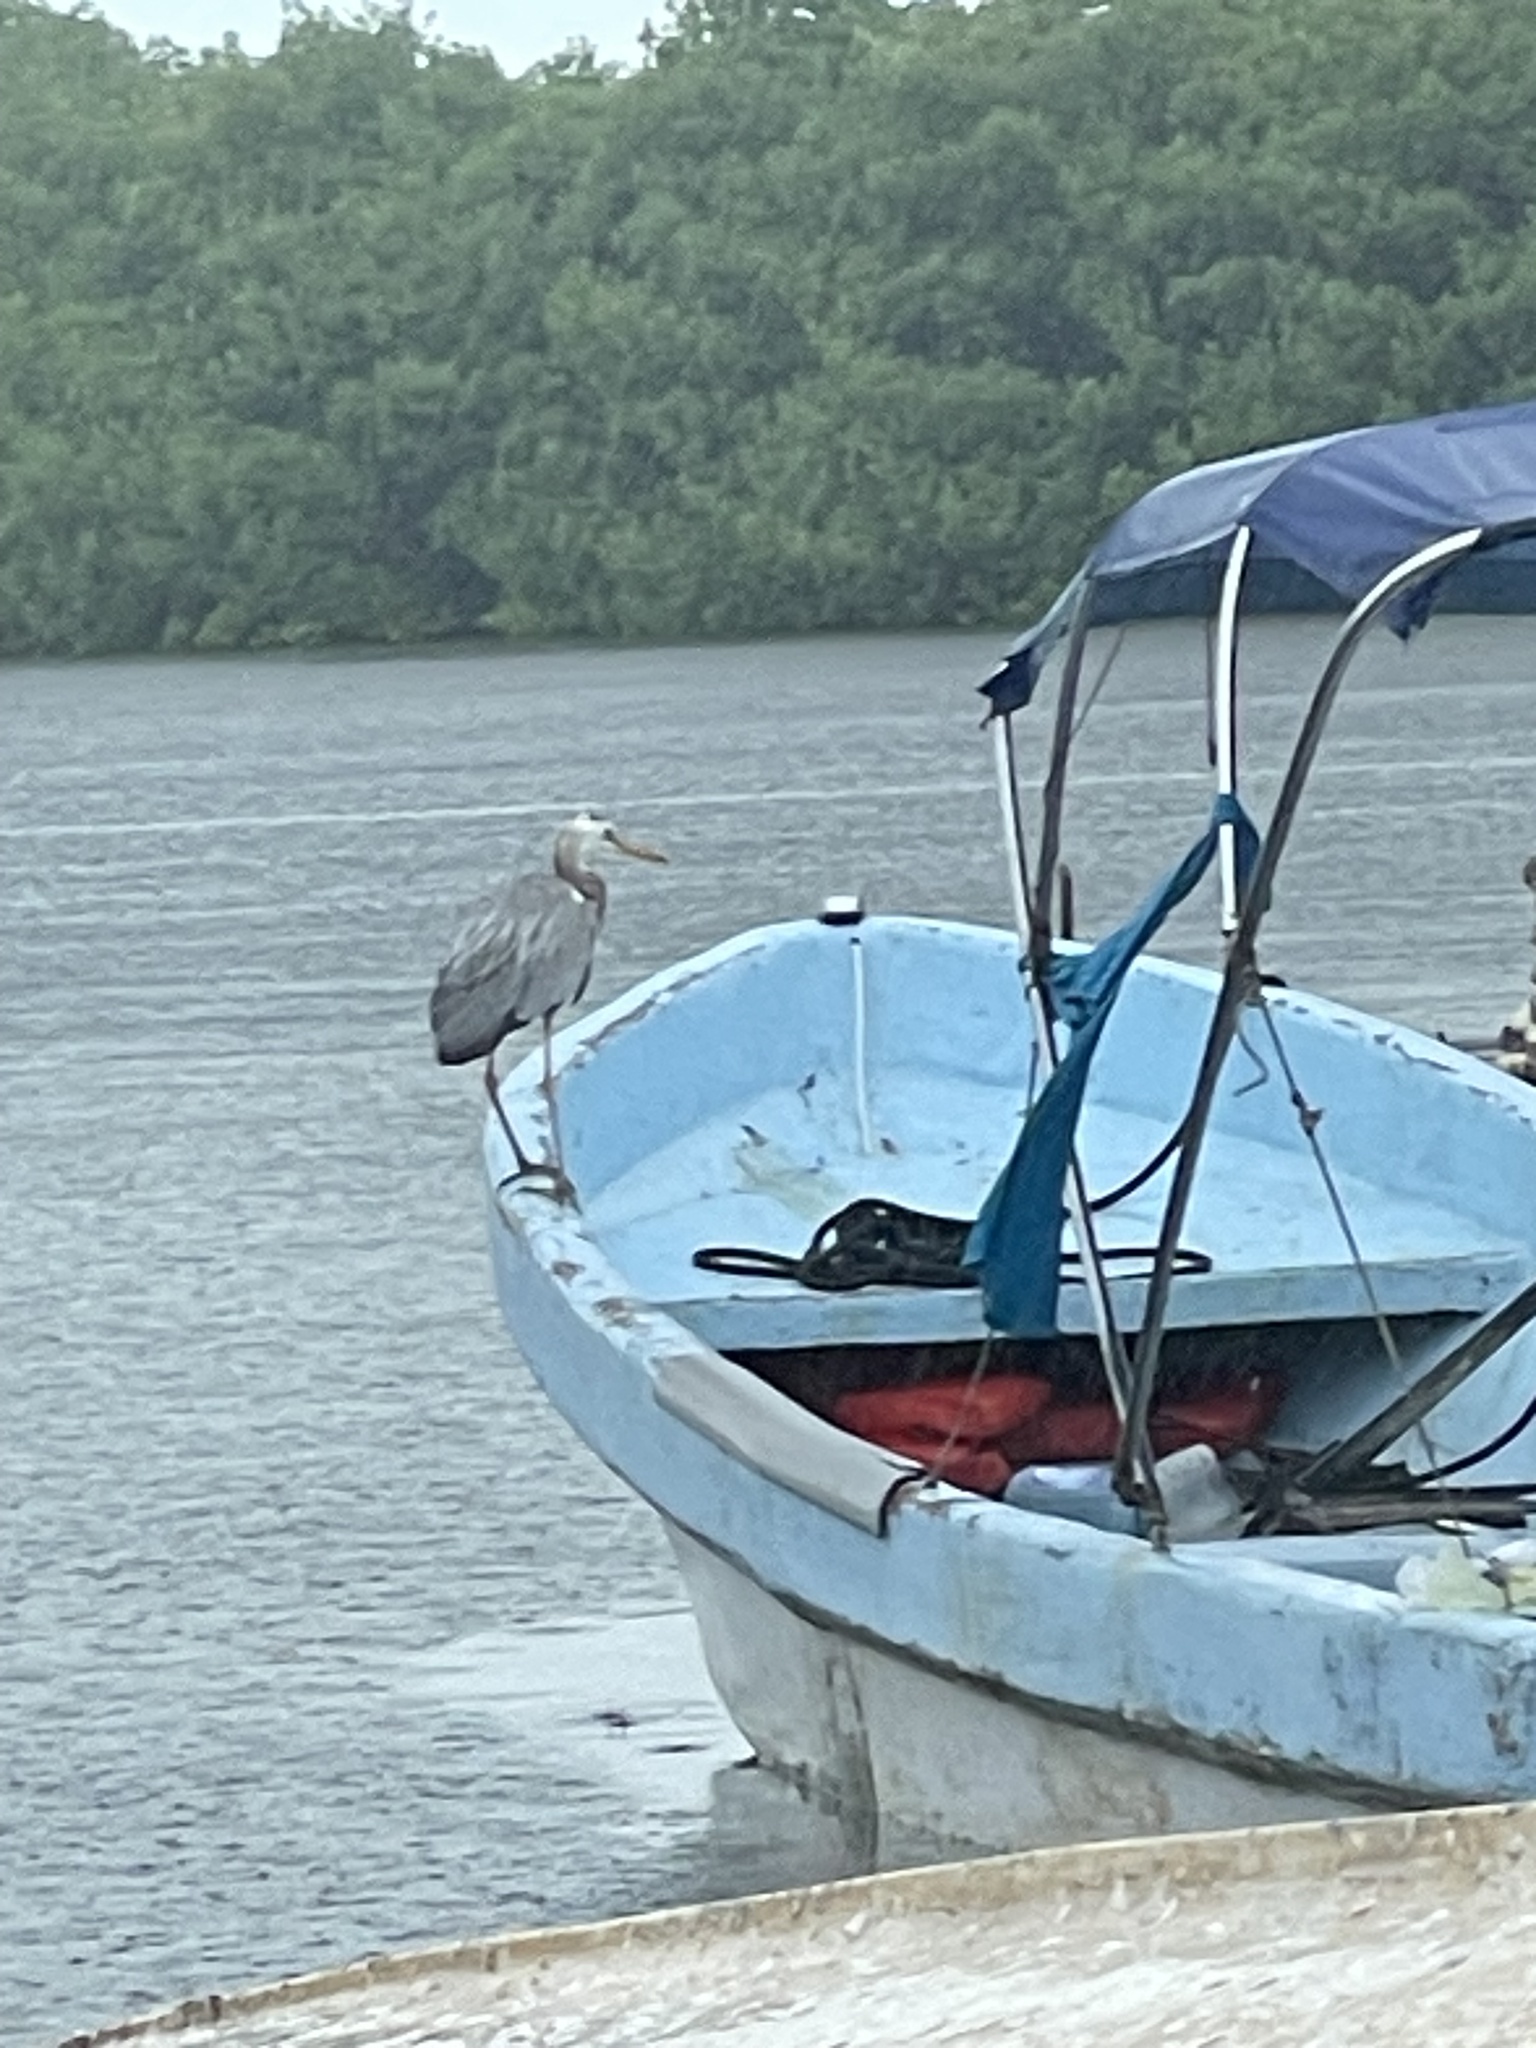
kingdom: Animalia
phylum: Chordata
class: Aves
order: Pelecaniformes
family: Ardeidae
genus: Ardea
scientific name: Ardea herodias
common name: Great blue heron
